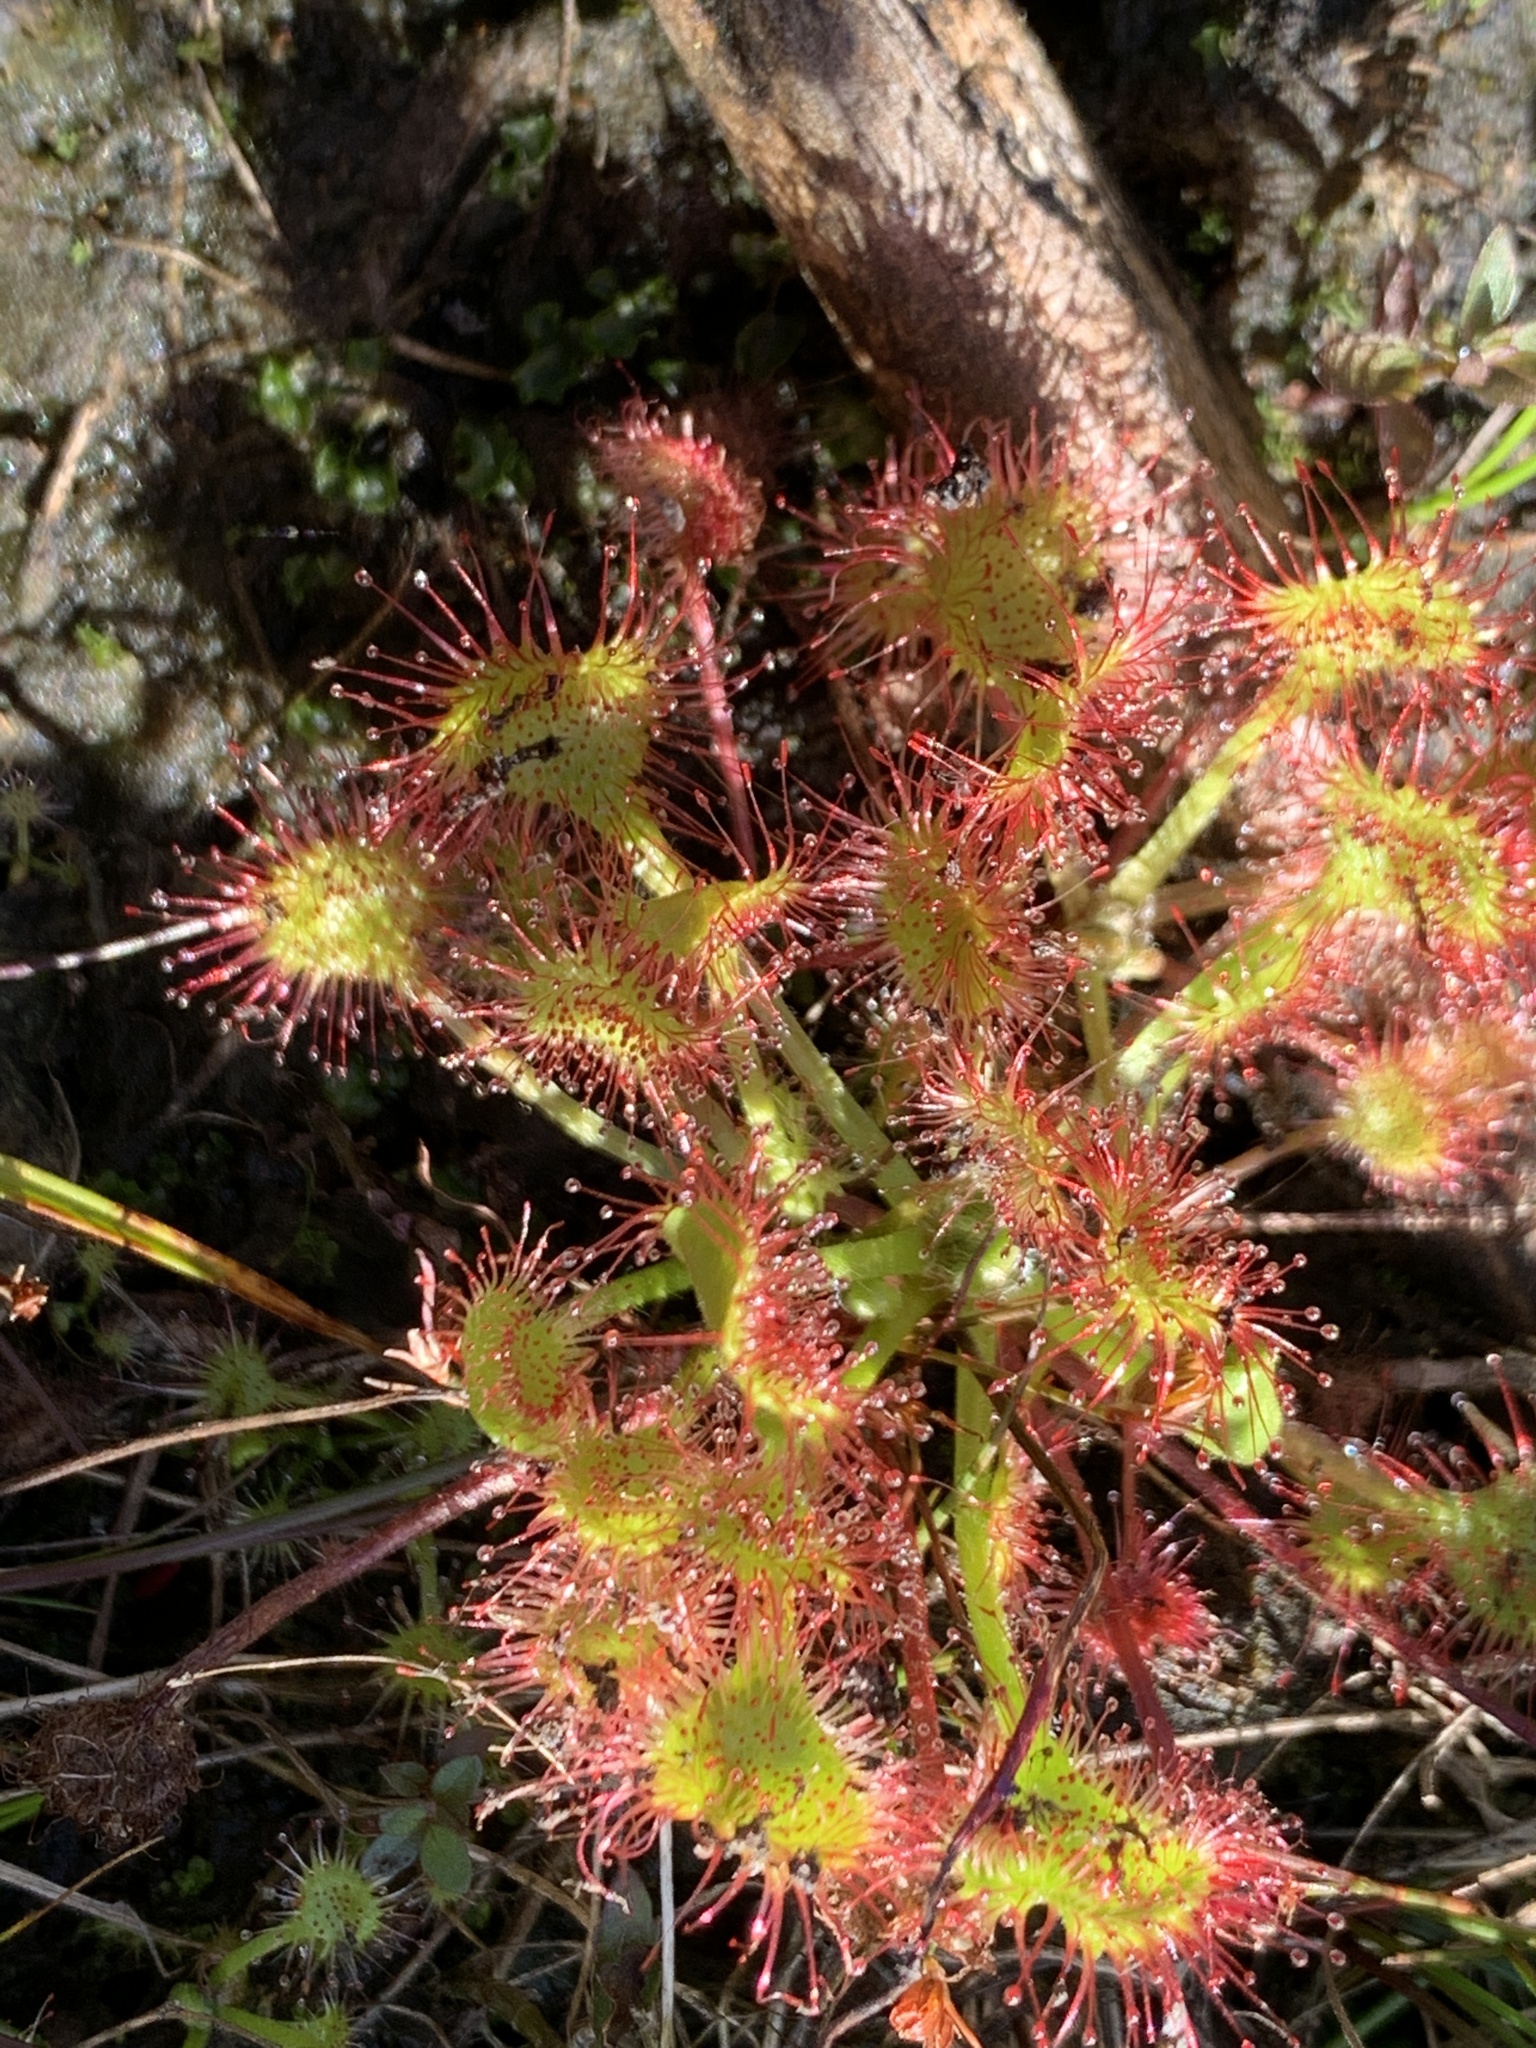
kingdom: Plantae
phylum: Tracheophyta
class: Magnoliopsida
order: Caryophyllales
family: Droseraceae
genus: Drosera
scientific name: Drosera rotundifolia
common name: Round-leaved sundew
